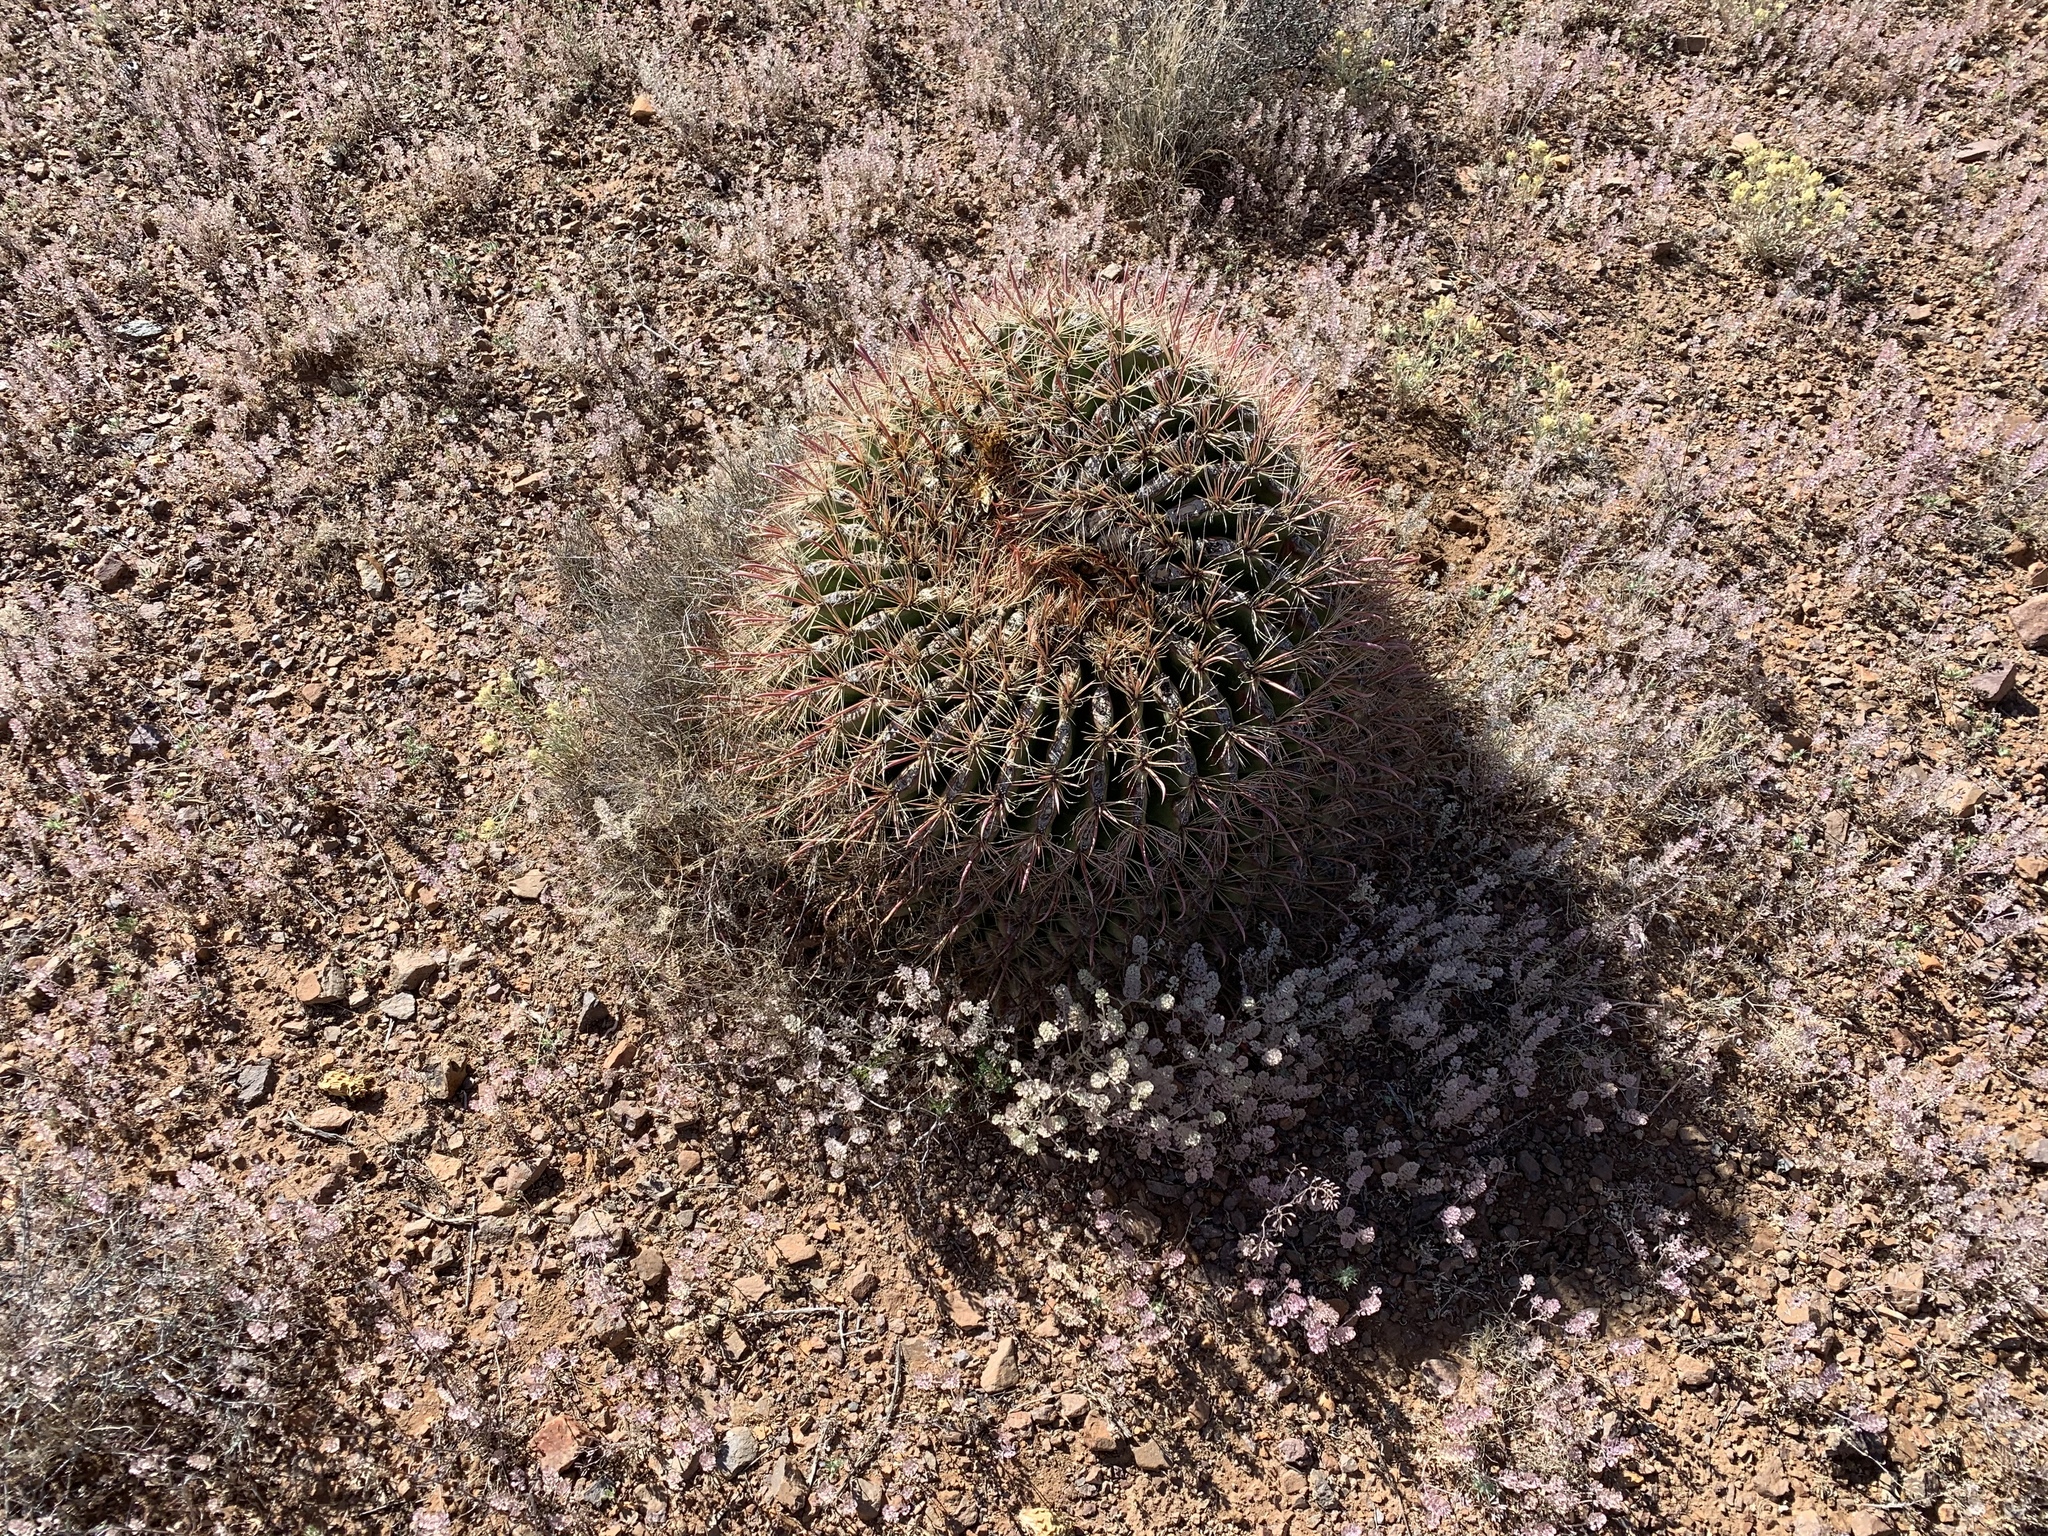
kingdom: Plantae
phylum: Tracheophyta
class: Magnoliopsida
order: Caryophyllales
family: Cactaceae
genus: Ferocactus
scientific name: Ferocactus wislizeni
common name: Candy barrel cactus
